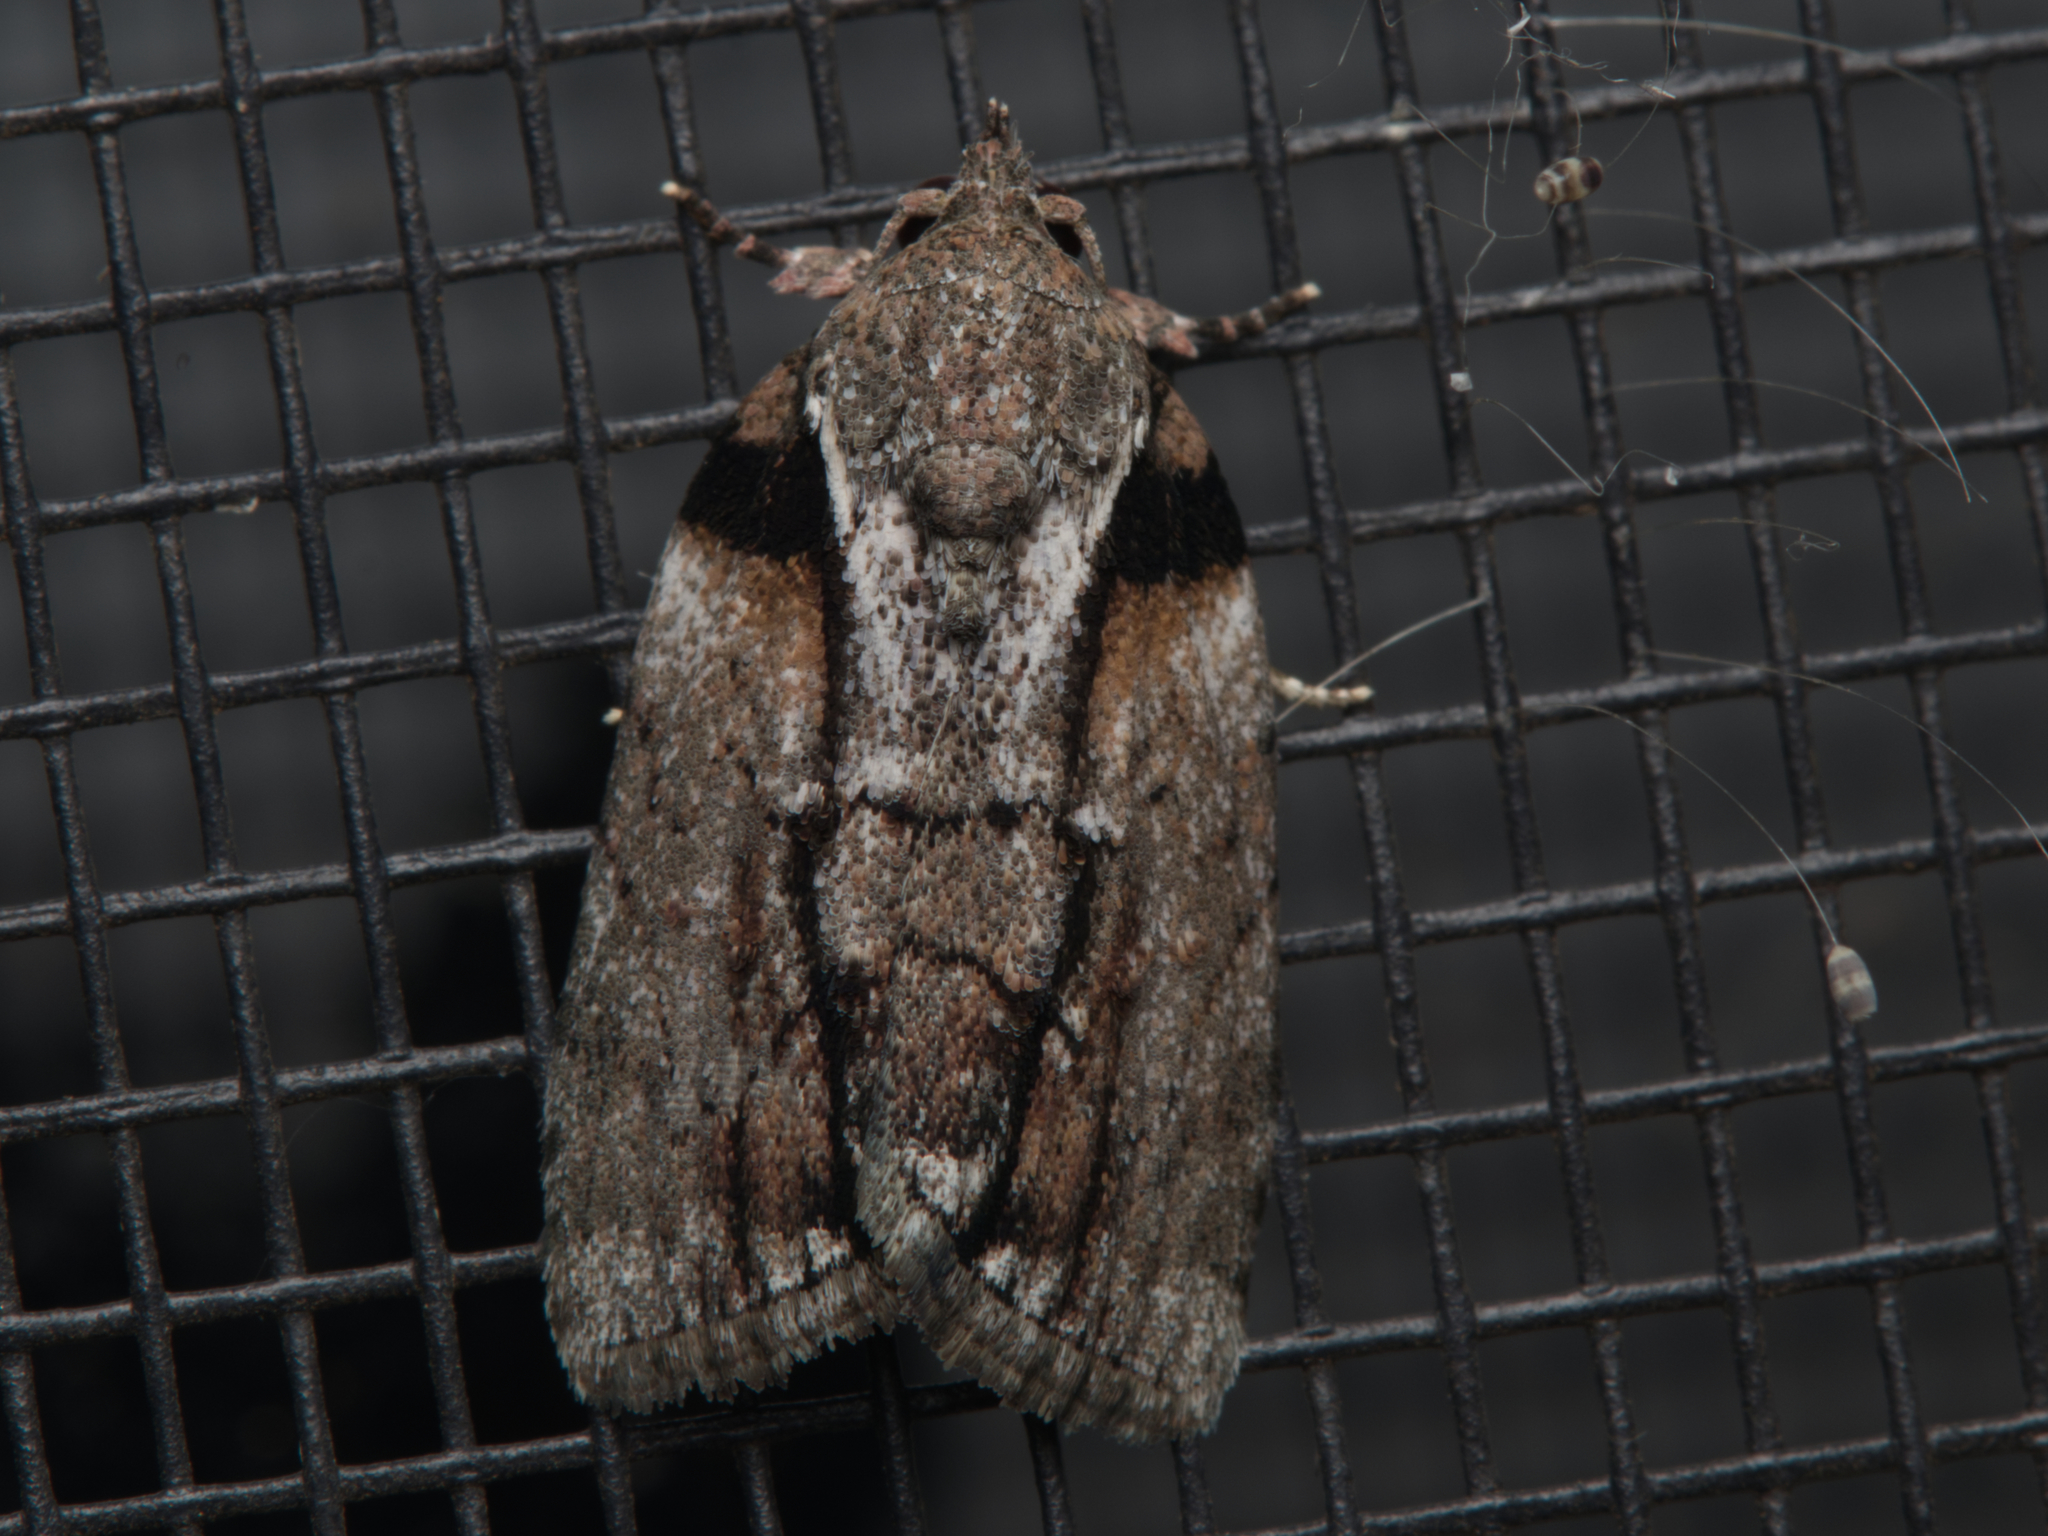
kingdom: Animalia
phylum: Arthropoda
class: Insecta
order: Lepidoptera
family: Nolidae
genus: Etanna
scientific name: Etanna clopaea
